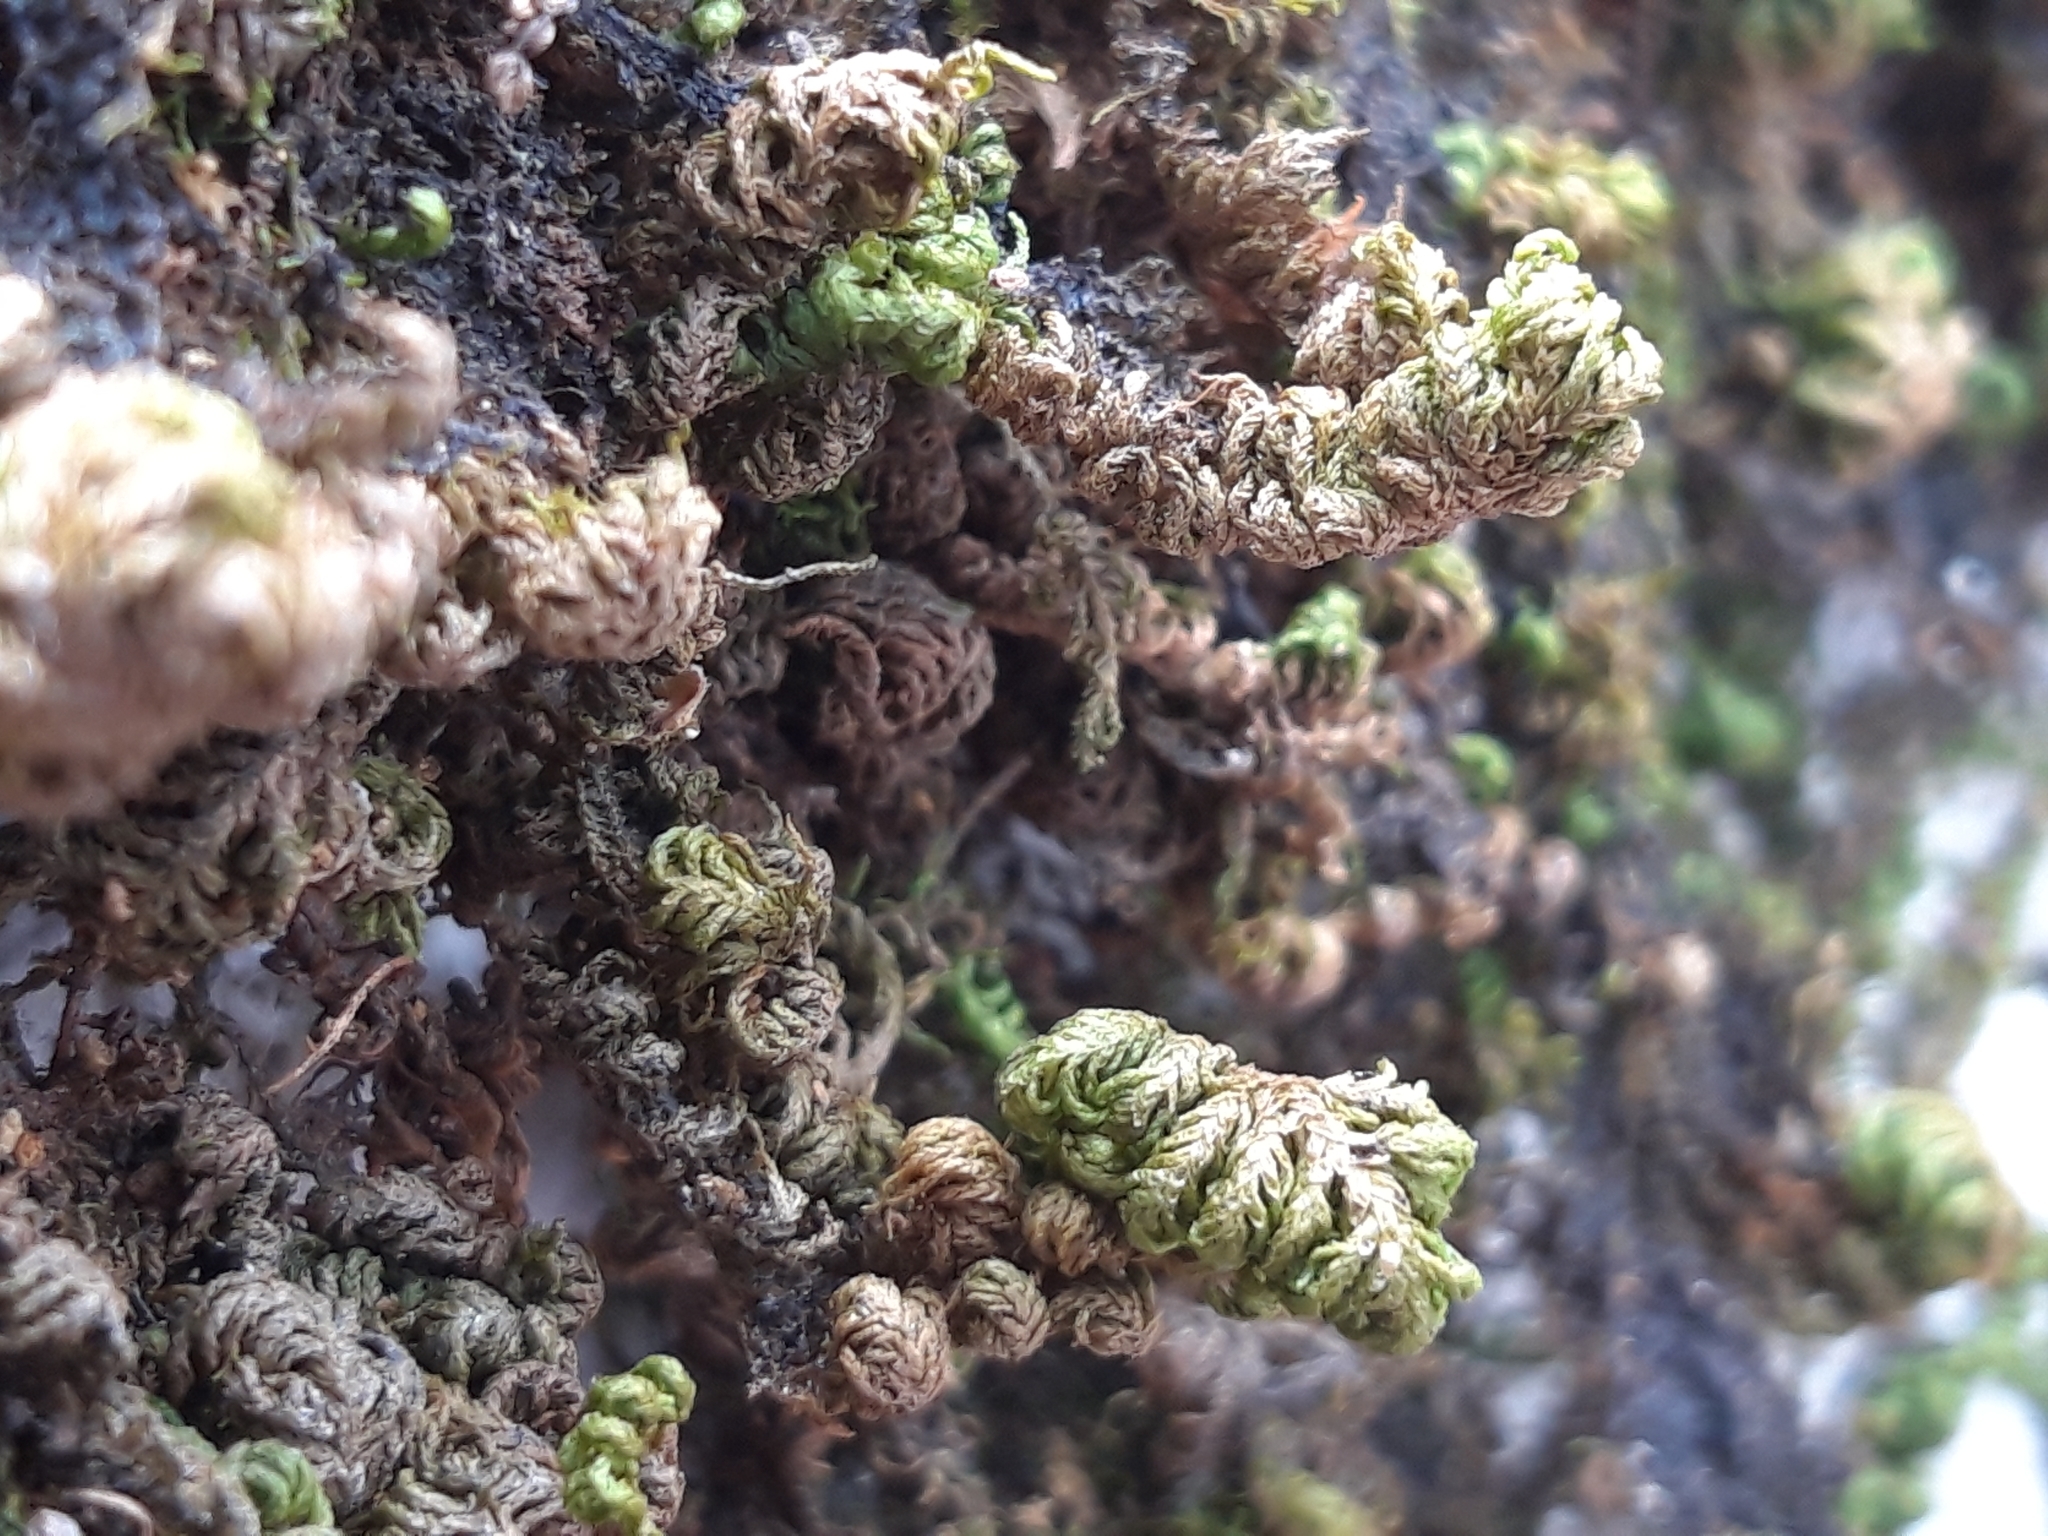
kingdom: Plantae
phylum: Bryophyta
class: Bryopsida
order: Hypnales
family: Neckeraceae
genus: Leptodon
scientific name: Leptodon smithii
